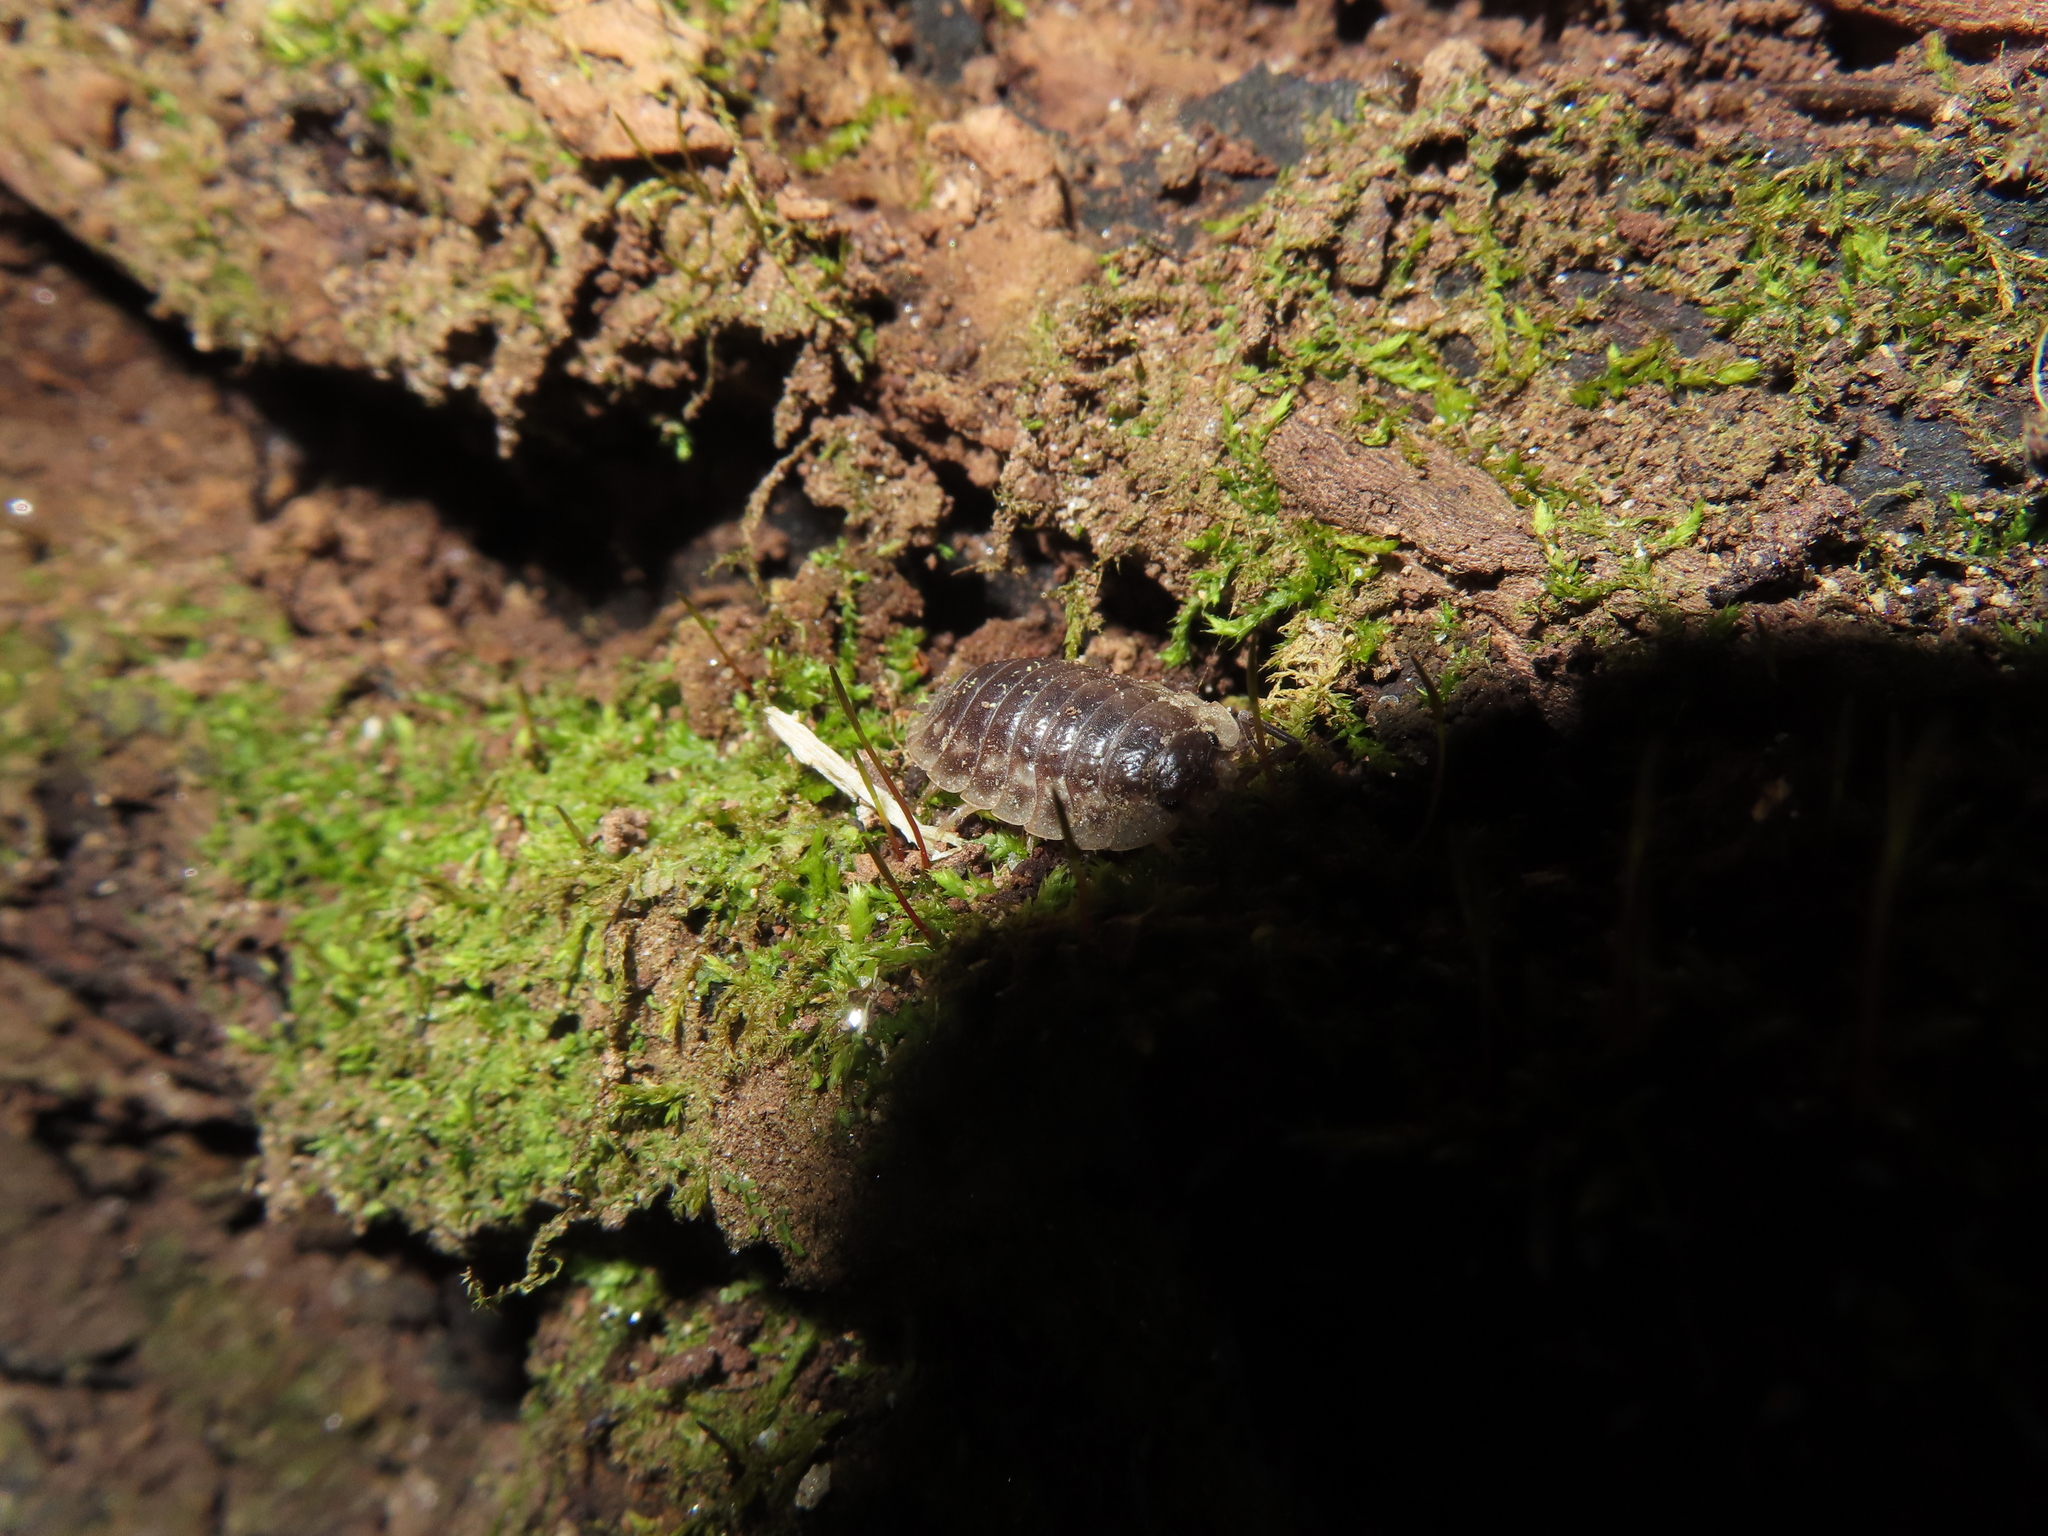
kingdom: Animalia
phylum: Arthropoda
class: Malacostraca
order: Isopoda
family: Oniscidae
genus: Oniscus
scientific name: Oniscus asellus
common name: Common shiny woodlouse
